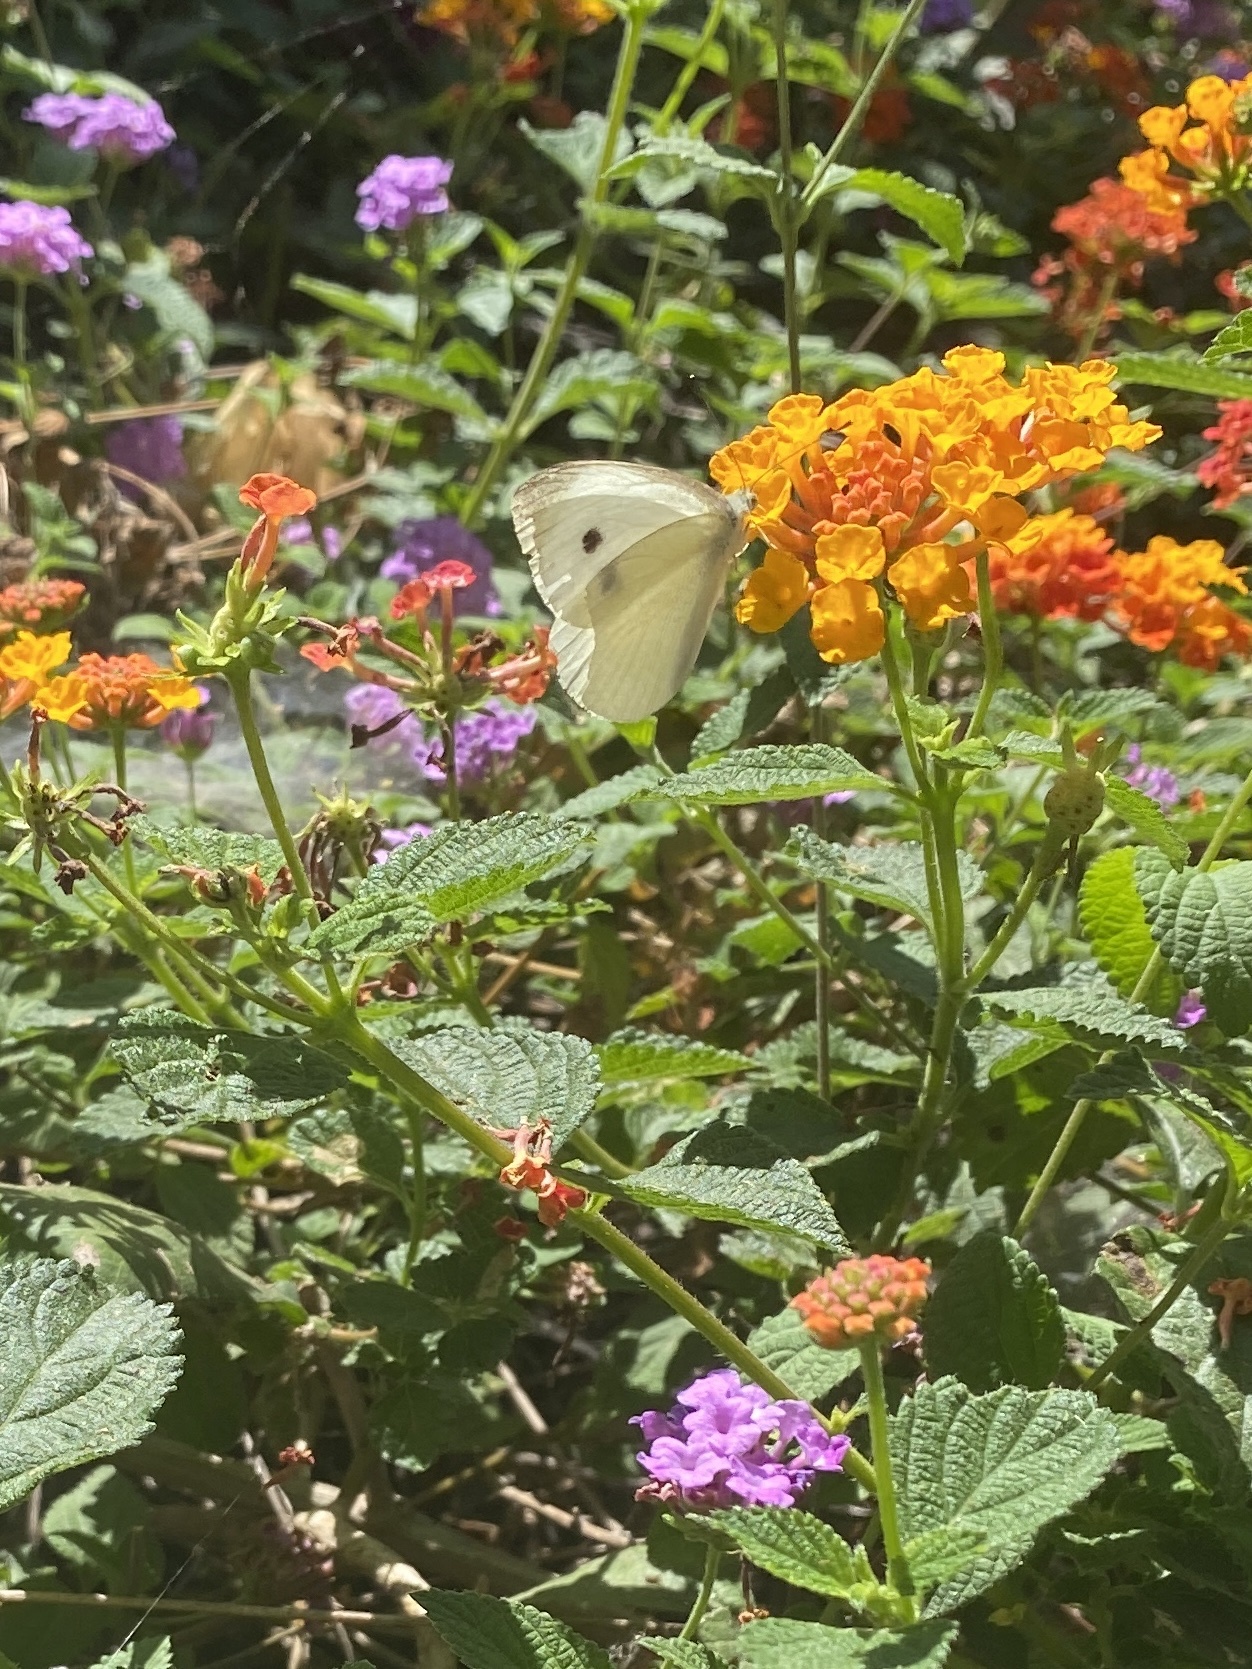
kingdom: Animalia
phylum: Arthropoda
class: Insecta
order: Lepidoptera
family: Pieridae
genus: Pieris
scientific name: Pieris rapae
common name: Small white
